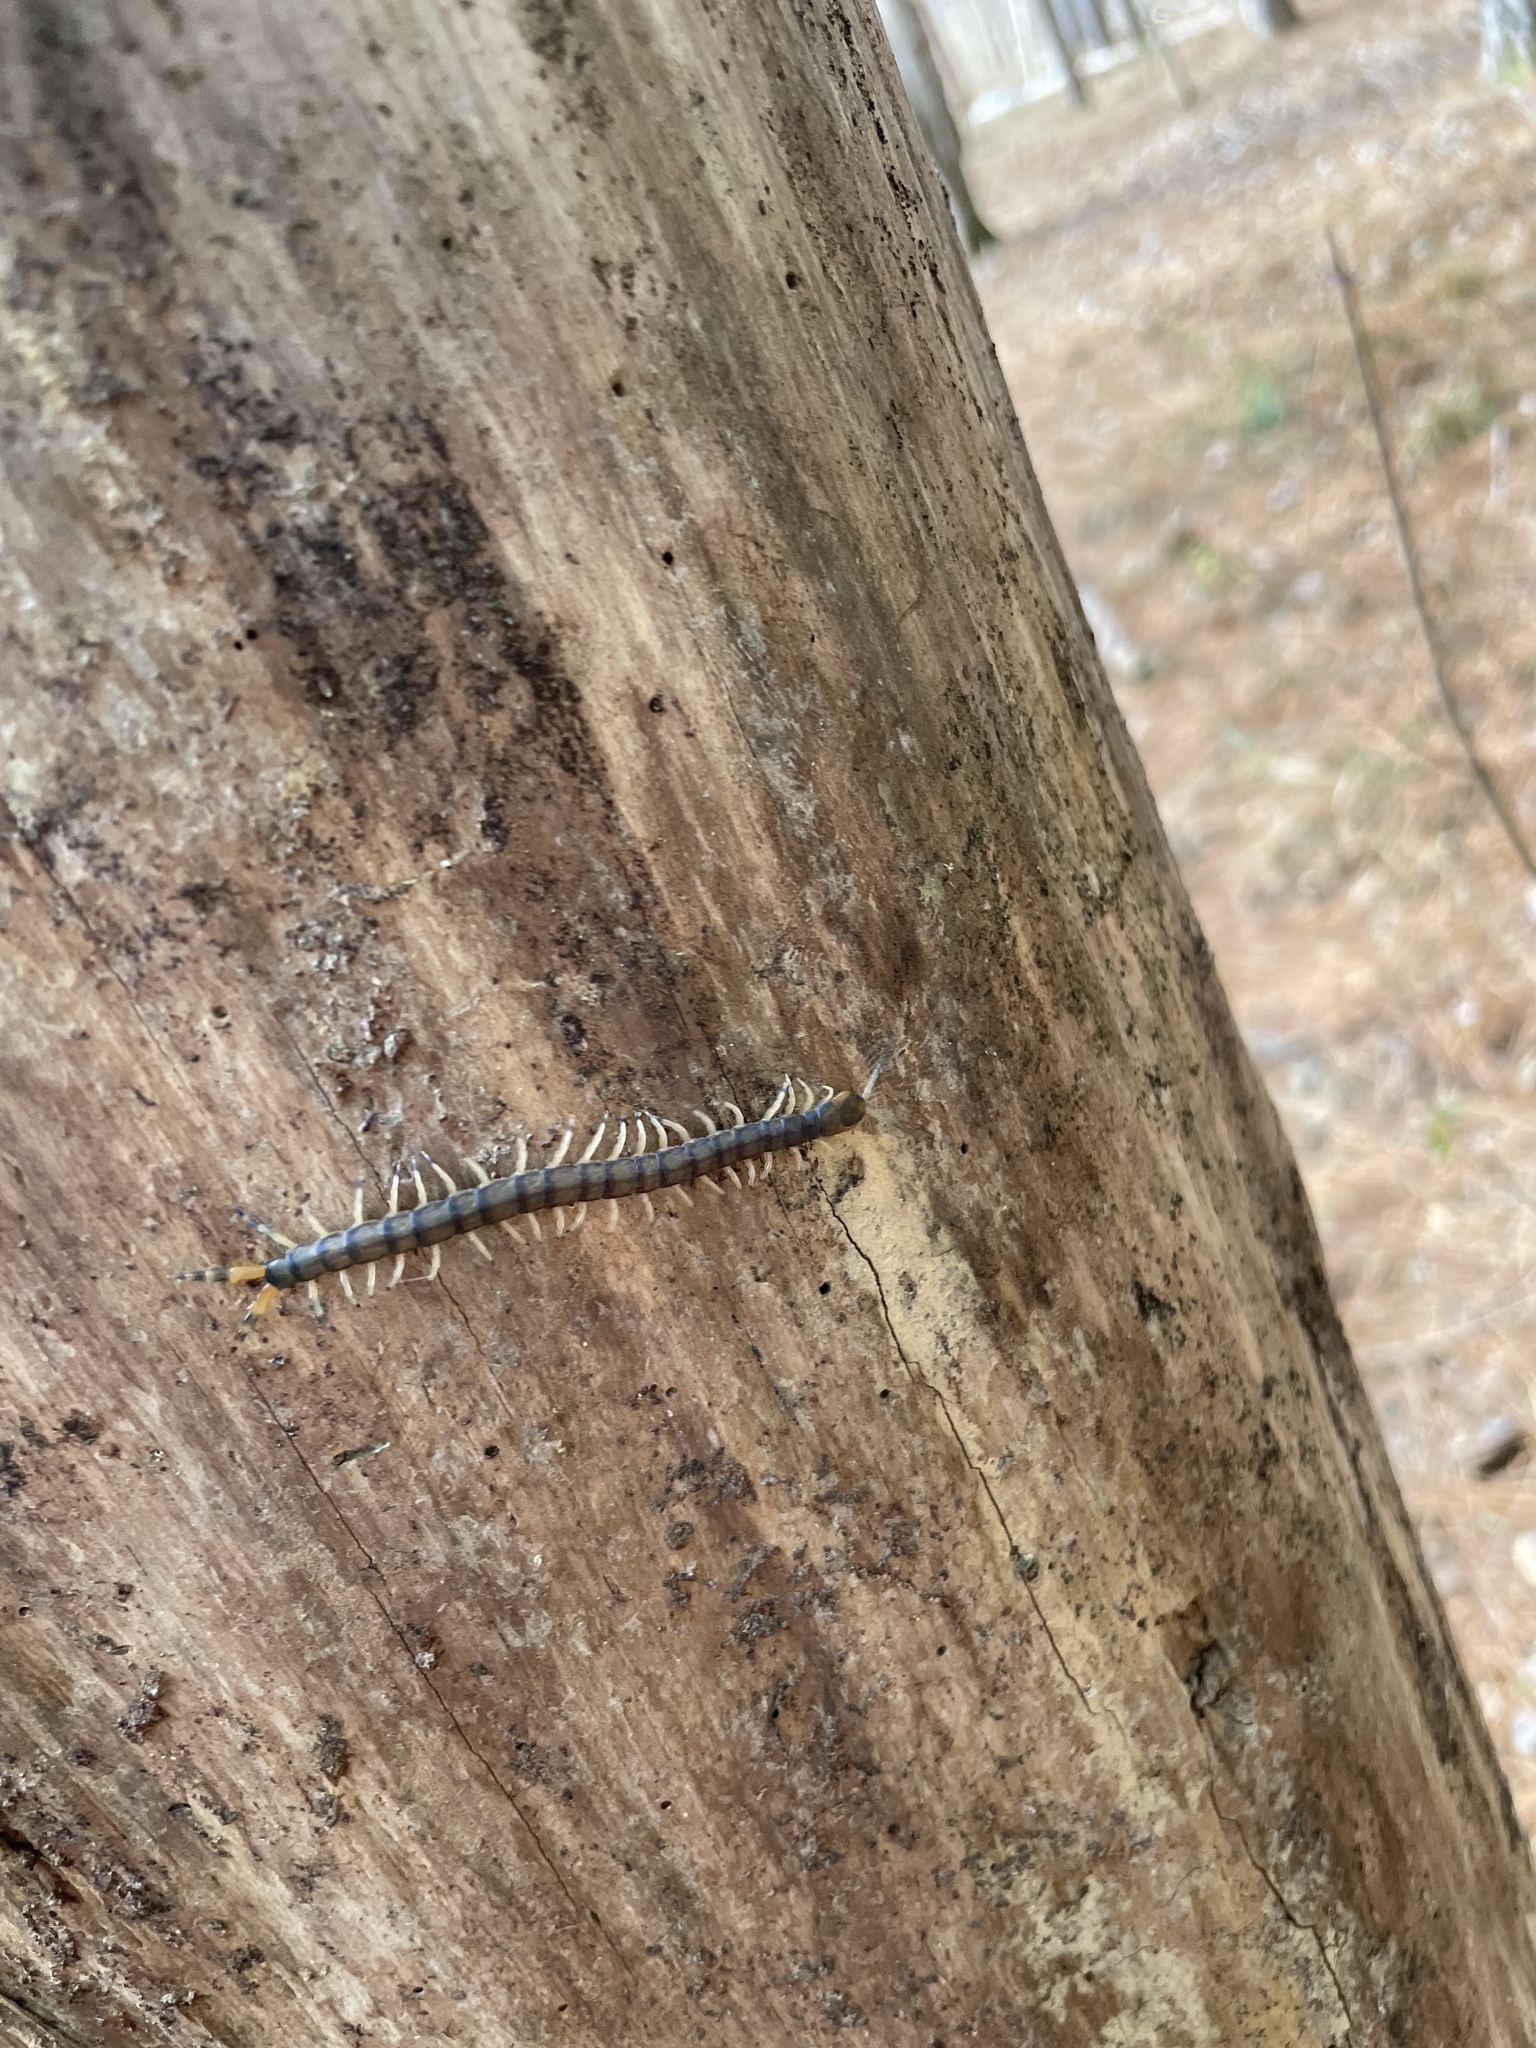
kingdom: Animalia
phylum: Arthropoda
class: Chilopoda
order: Scolopendromorpha
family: Scolopendridae
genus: Hemiscolopendra
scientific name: Hemiscolopendra marginata
